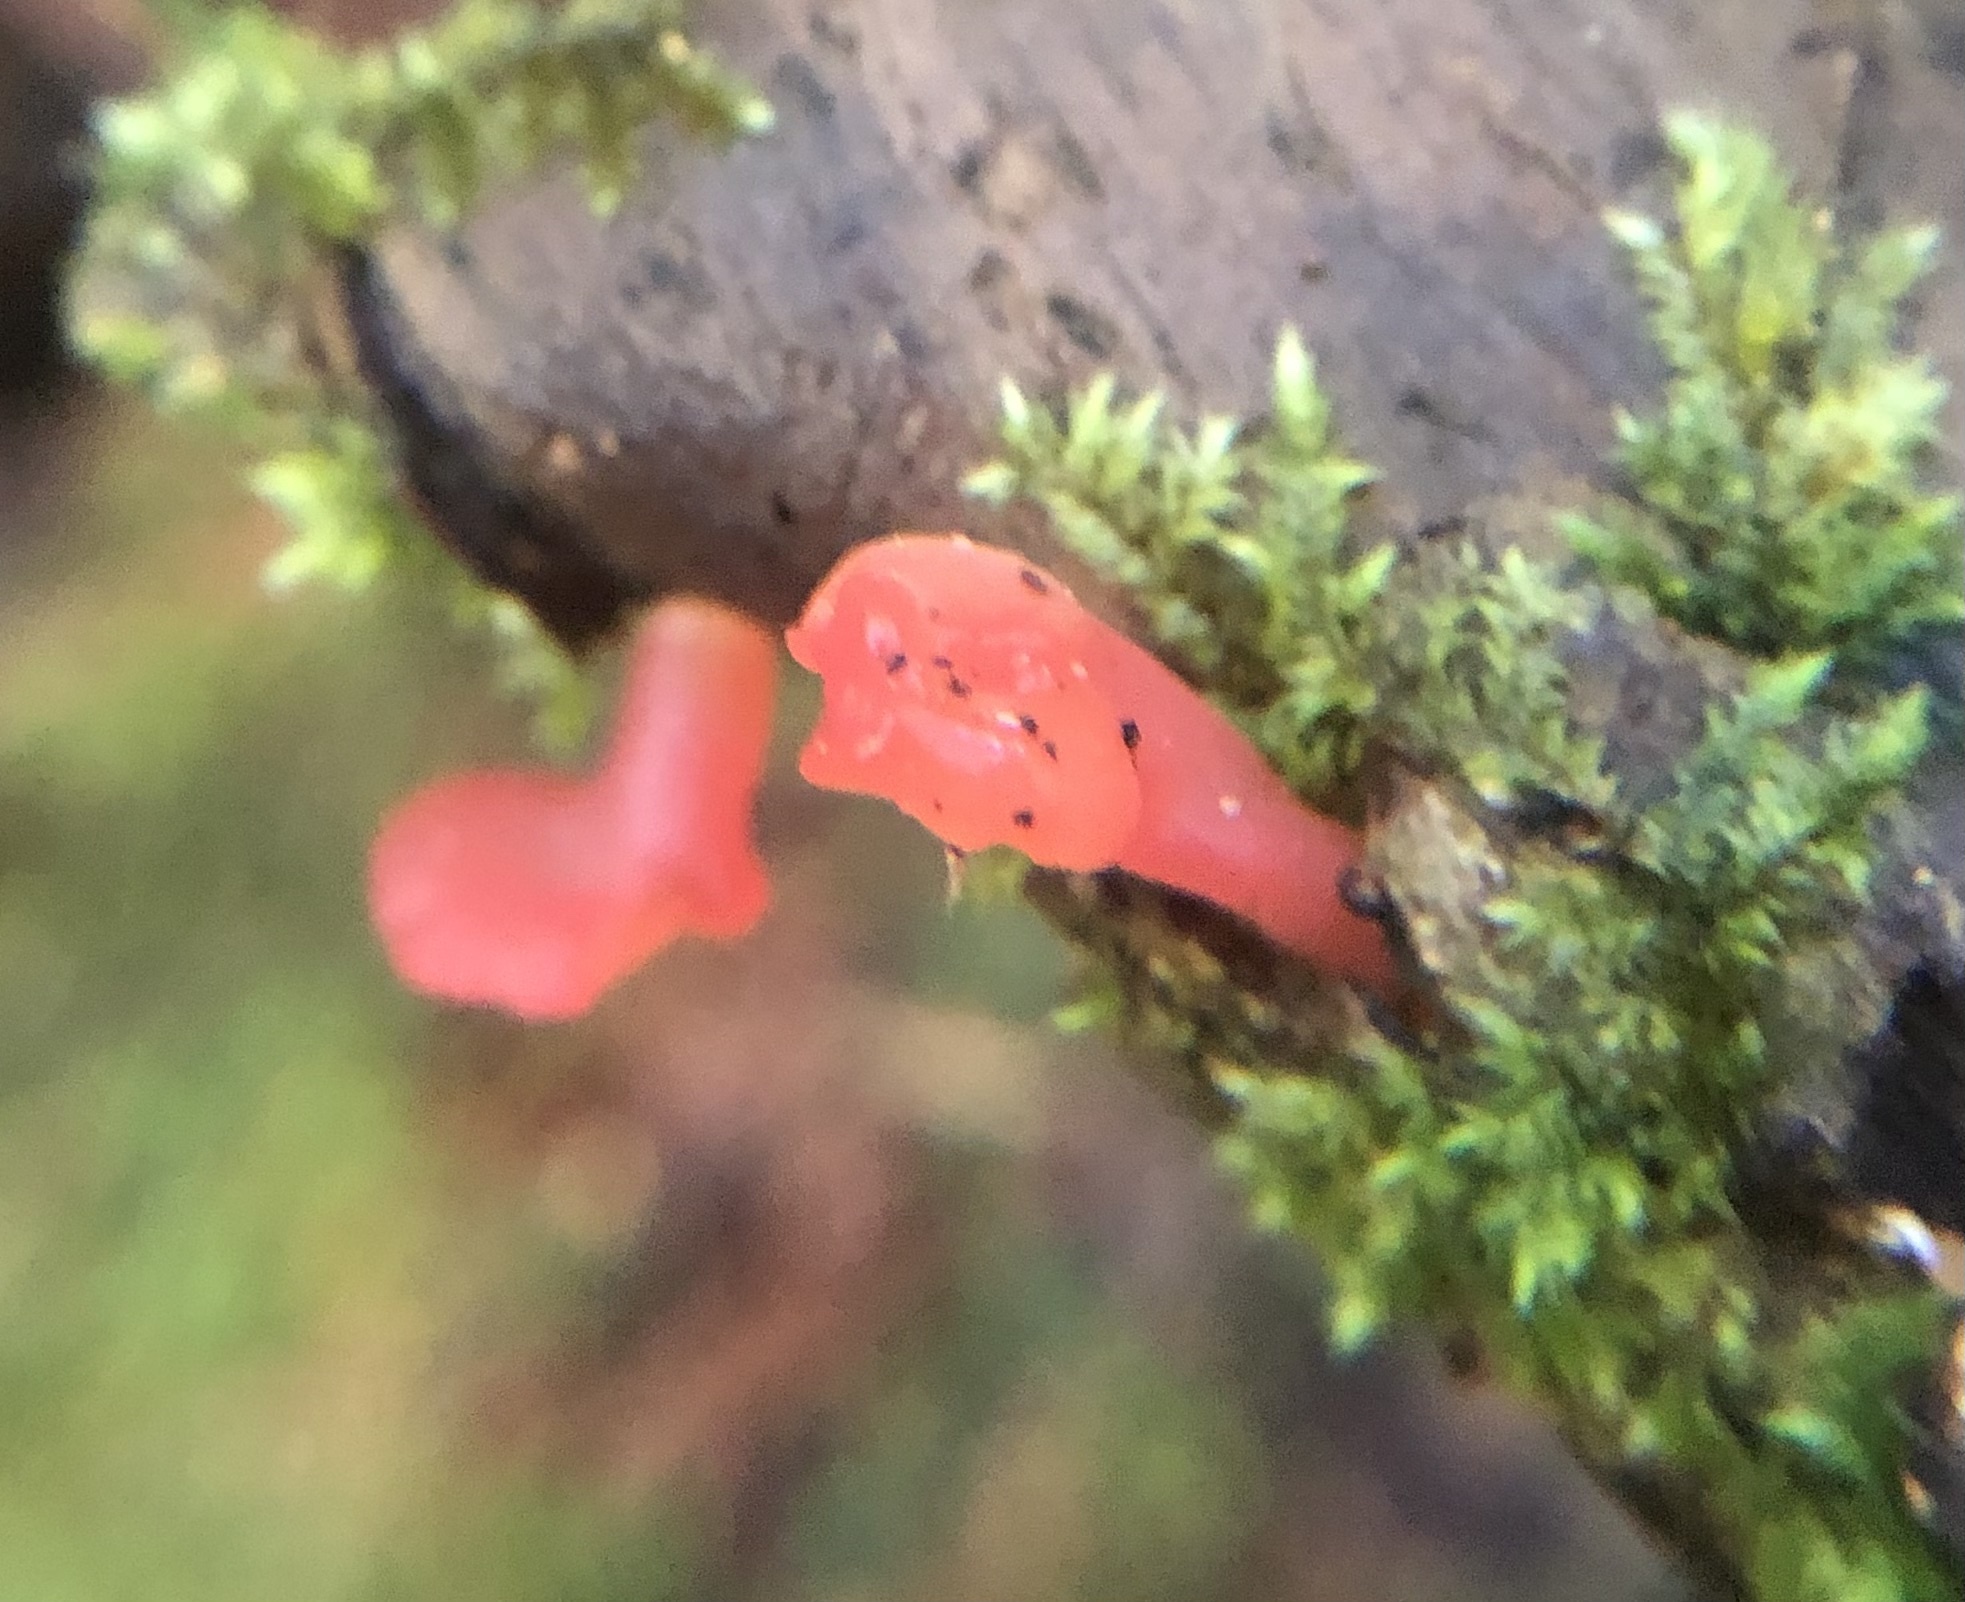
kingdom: Fungi
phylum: Basidiomycota
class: Dacrymycetes
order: Dacrymycetales
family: Dacrymycetaceae
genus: Dacryopinax
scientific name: Dacryopinax martinii
